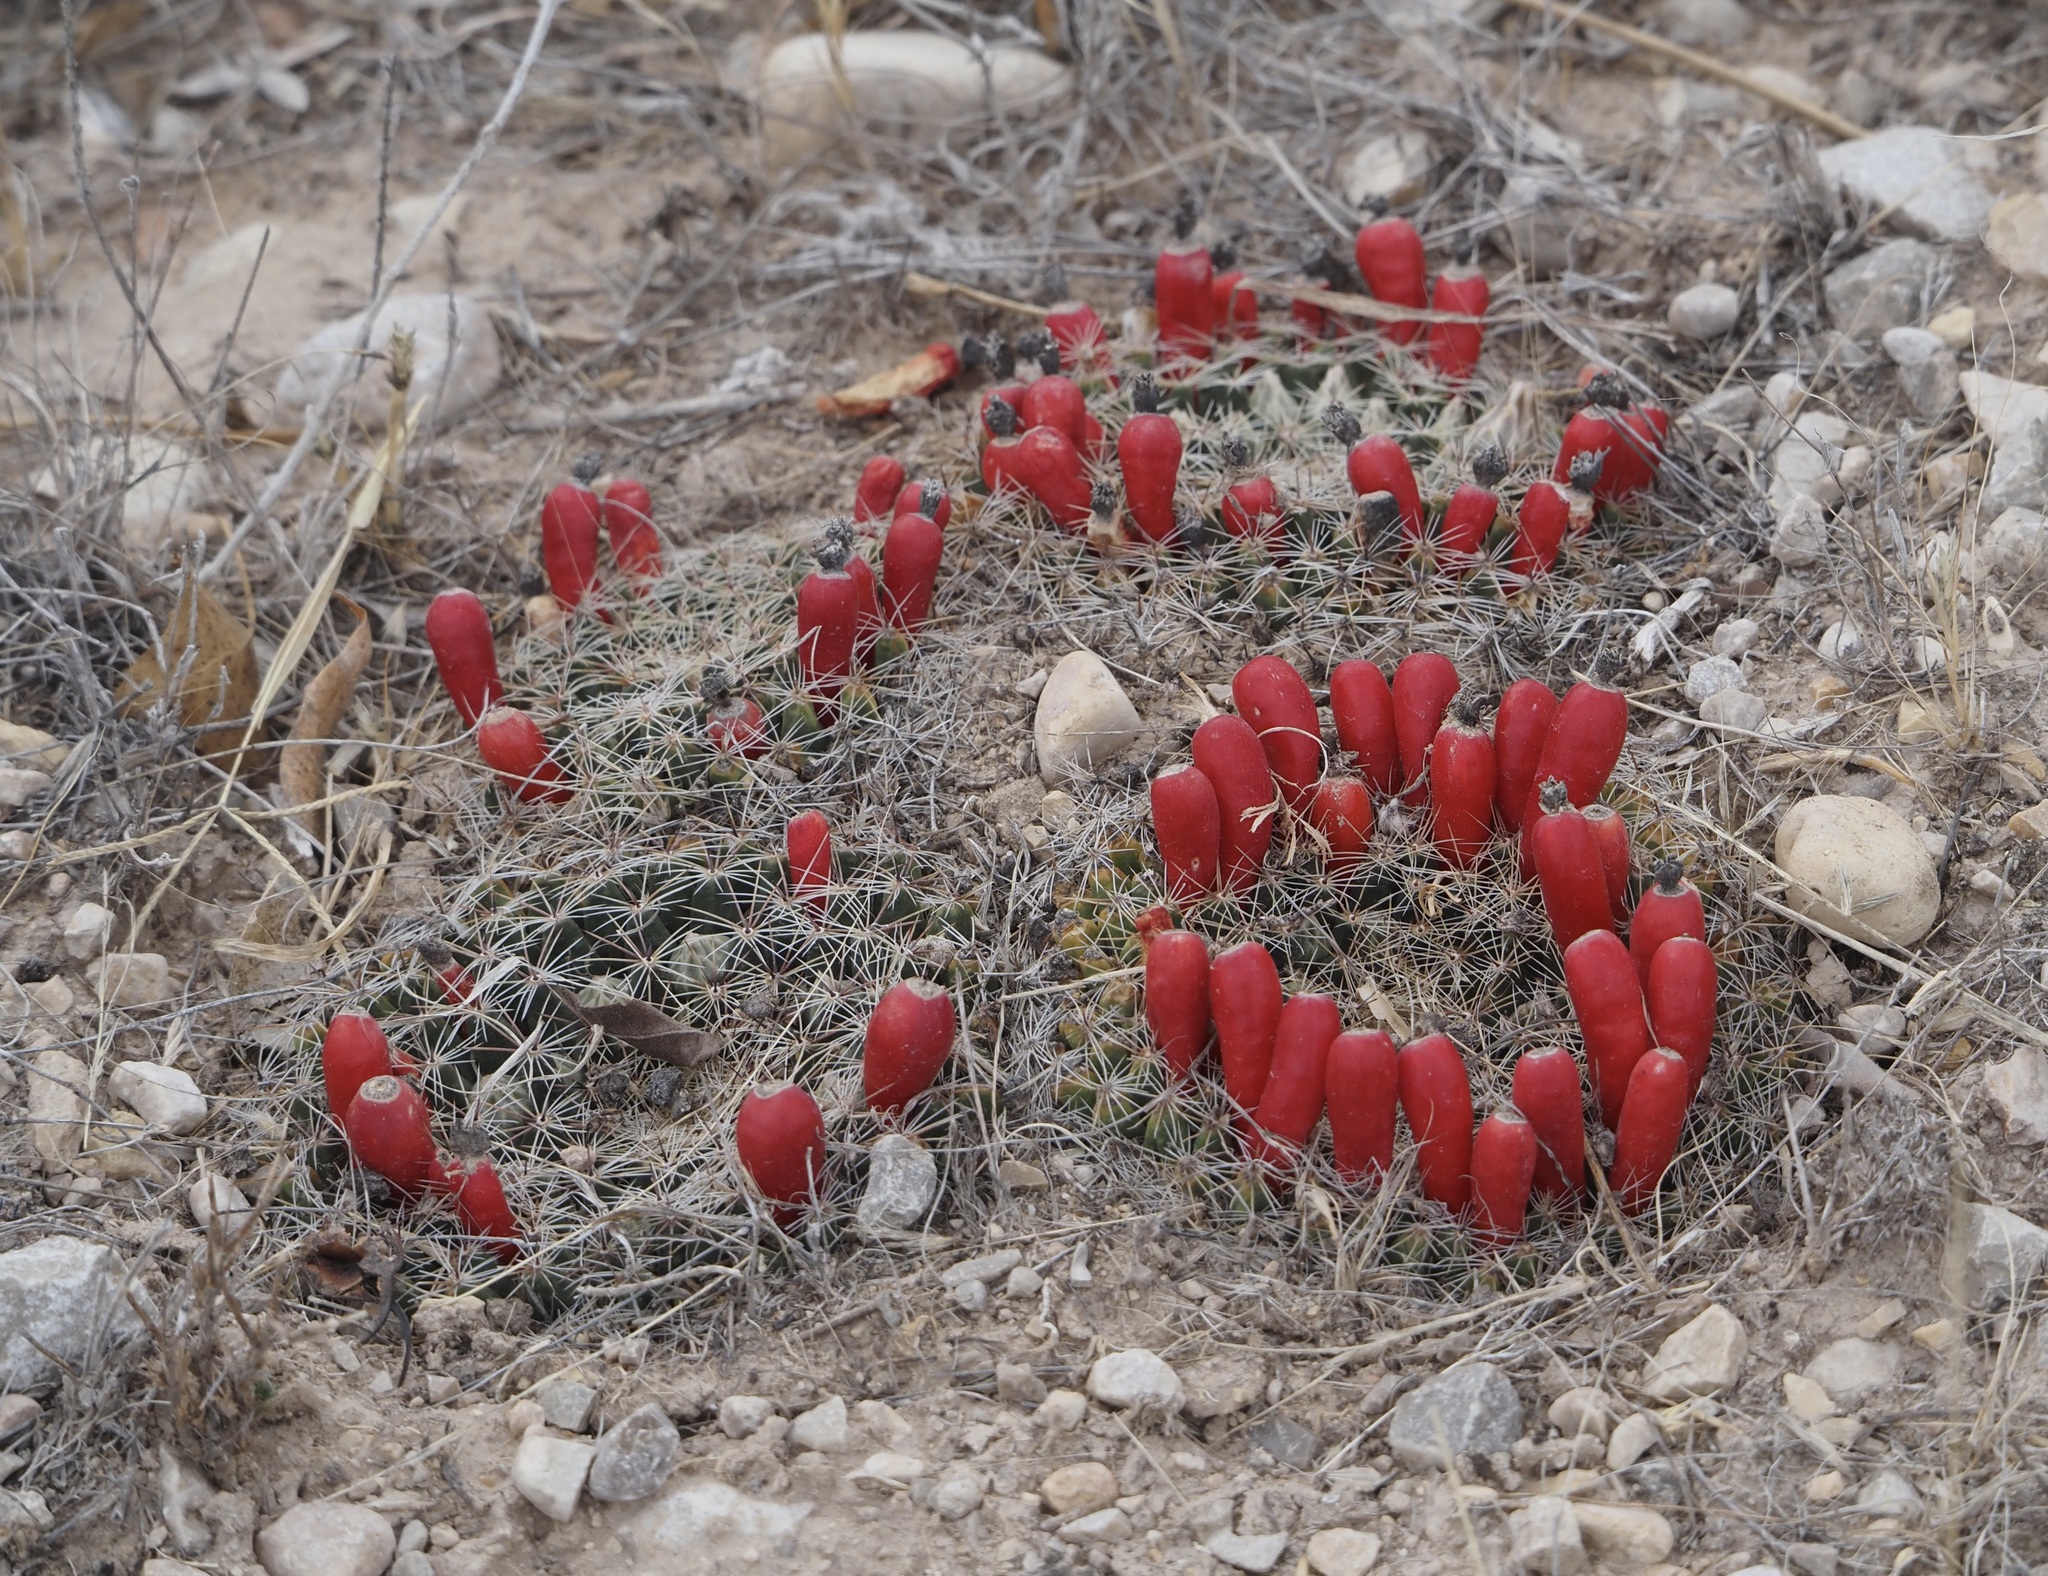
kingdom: Plantae
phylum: Tracheophyta
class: Magnoliopsida
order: Caryophyllales
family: Cactaceae
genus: Mammillaria
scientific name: Mammillaria heyderi
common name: Little nipple cactus
